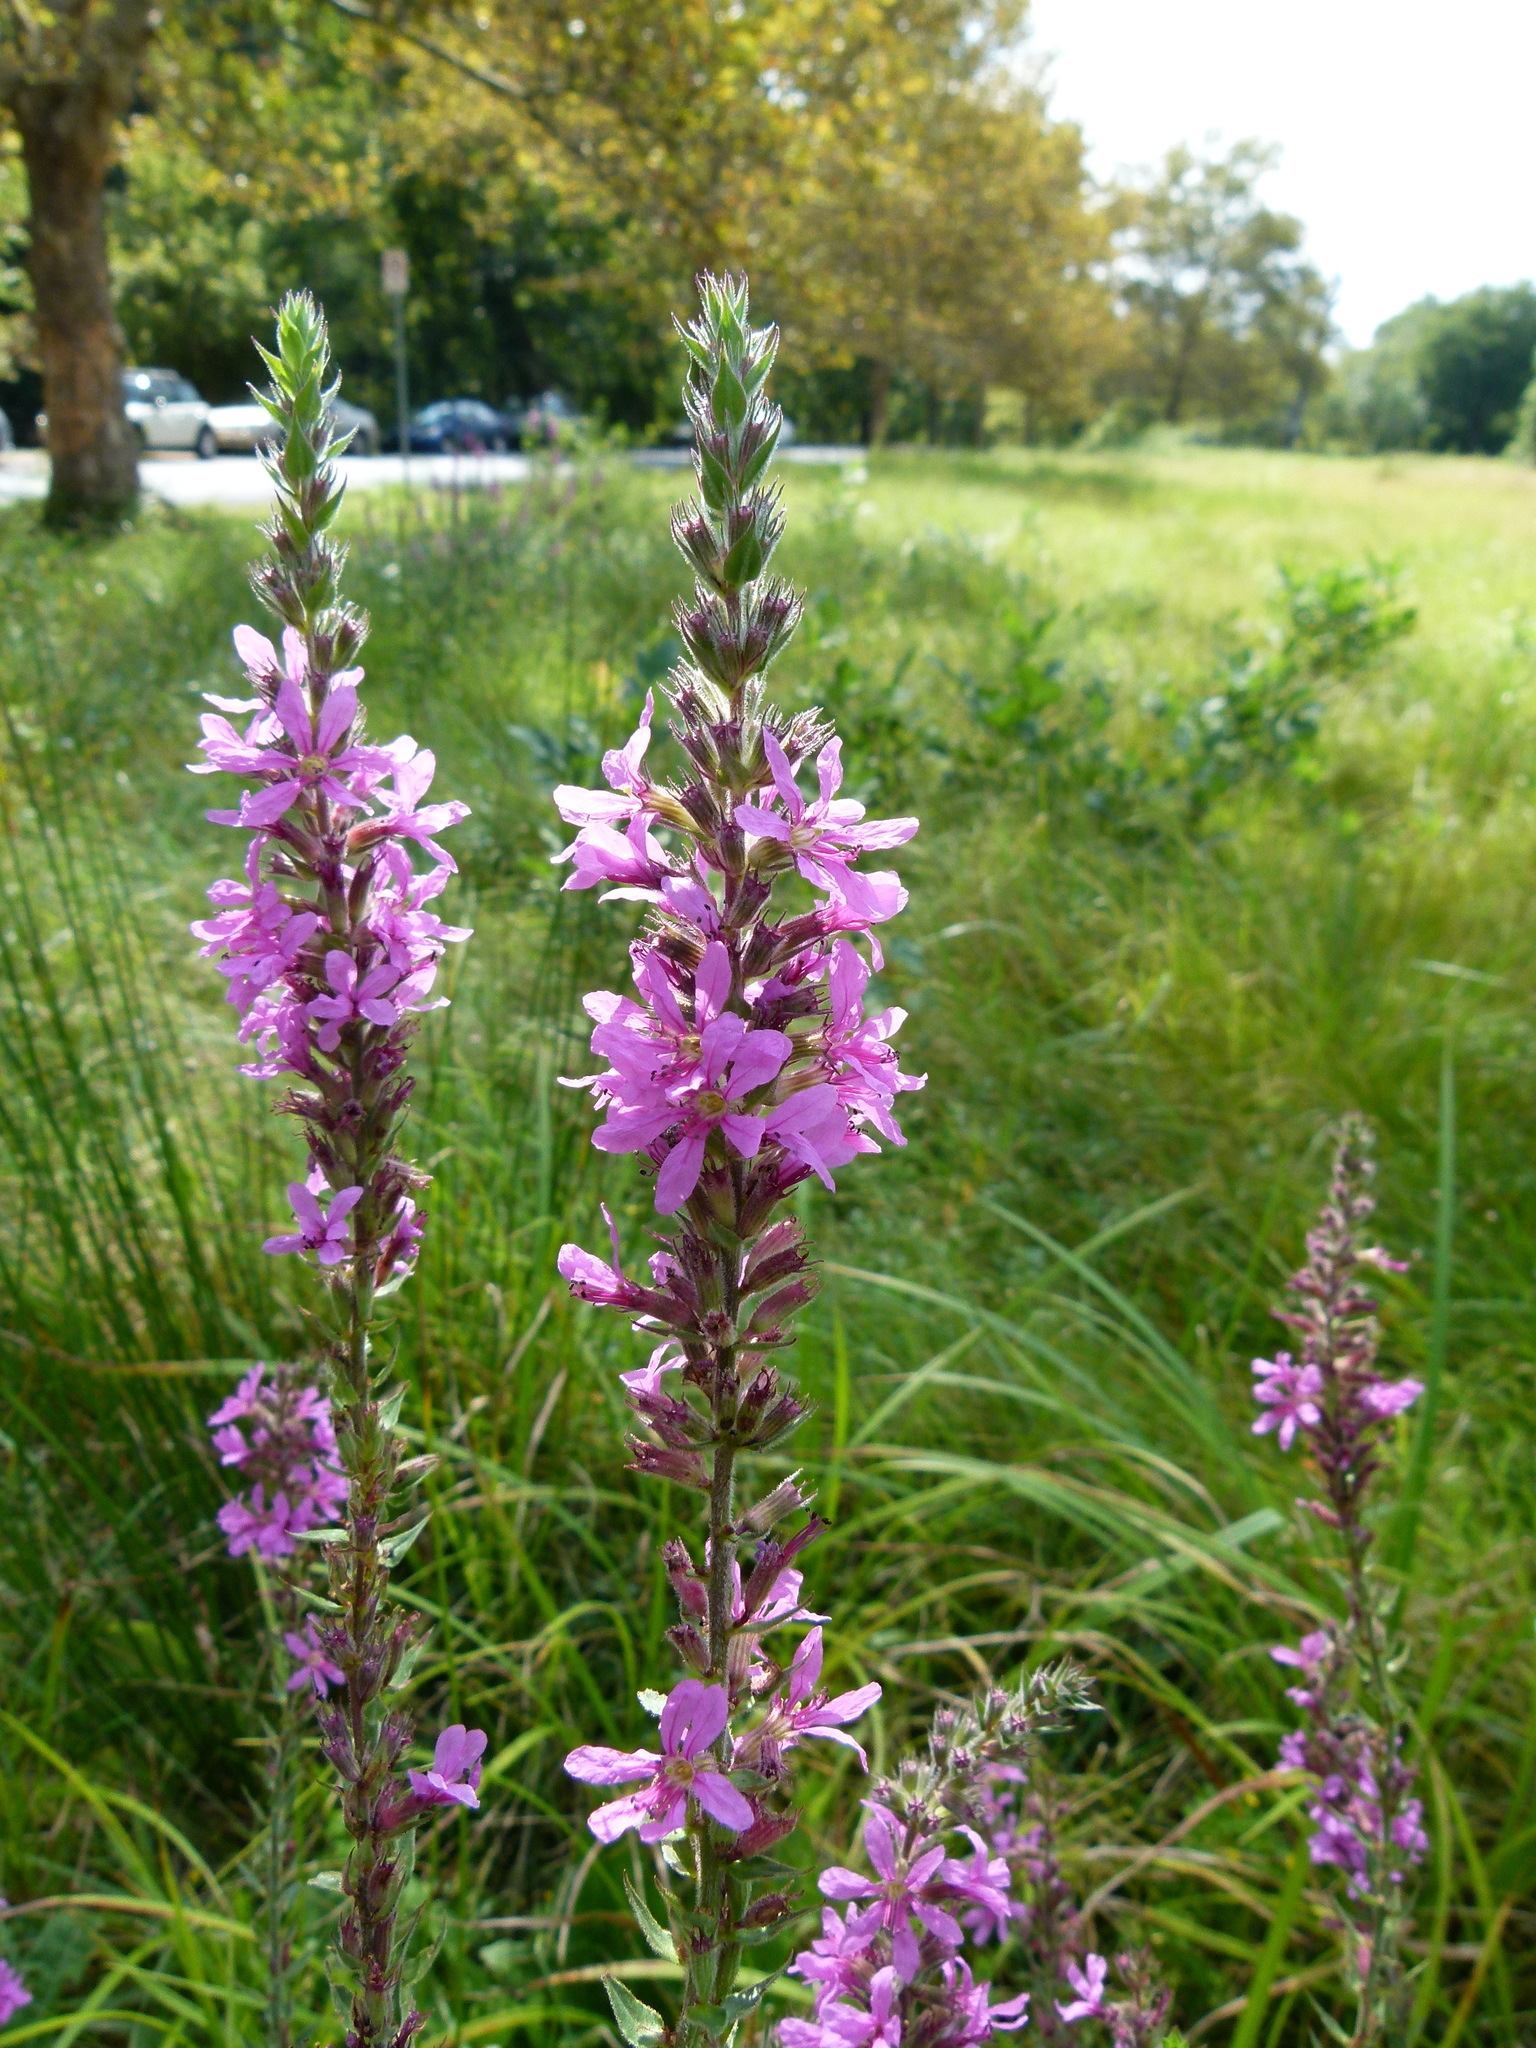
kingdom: Plantae
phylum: Tracheophyta
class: Magnoliopsida
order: Myrtales
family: Lythraceae
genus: Lythrum
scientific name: Lythrum salicaria
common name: Purple loosestrife
